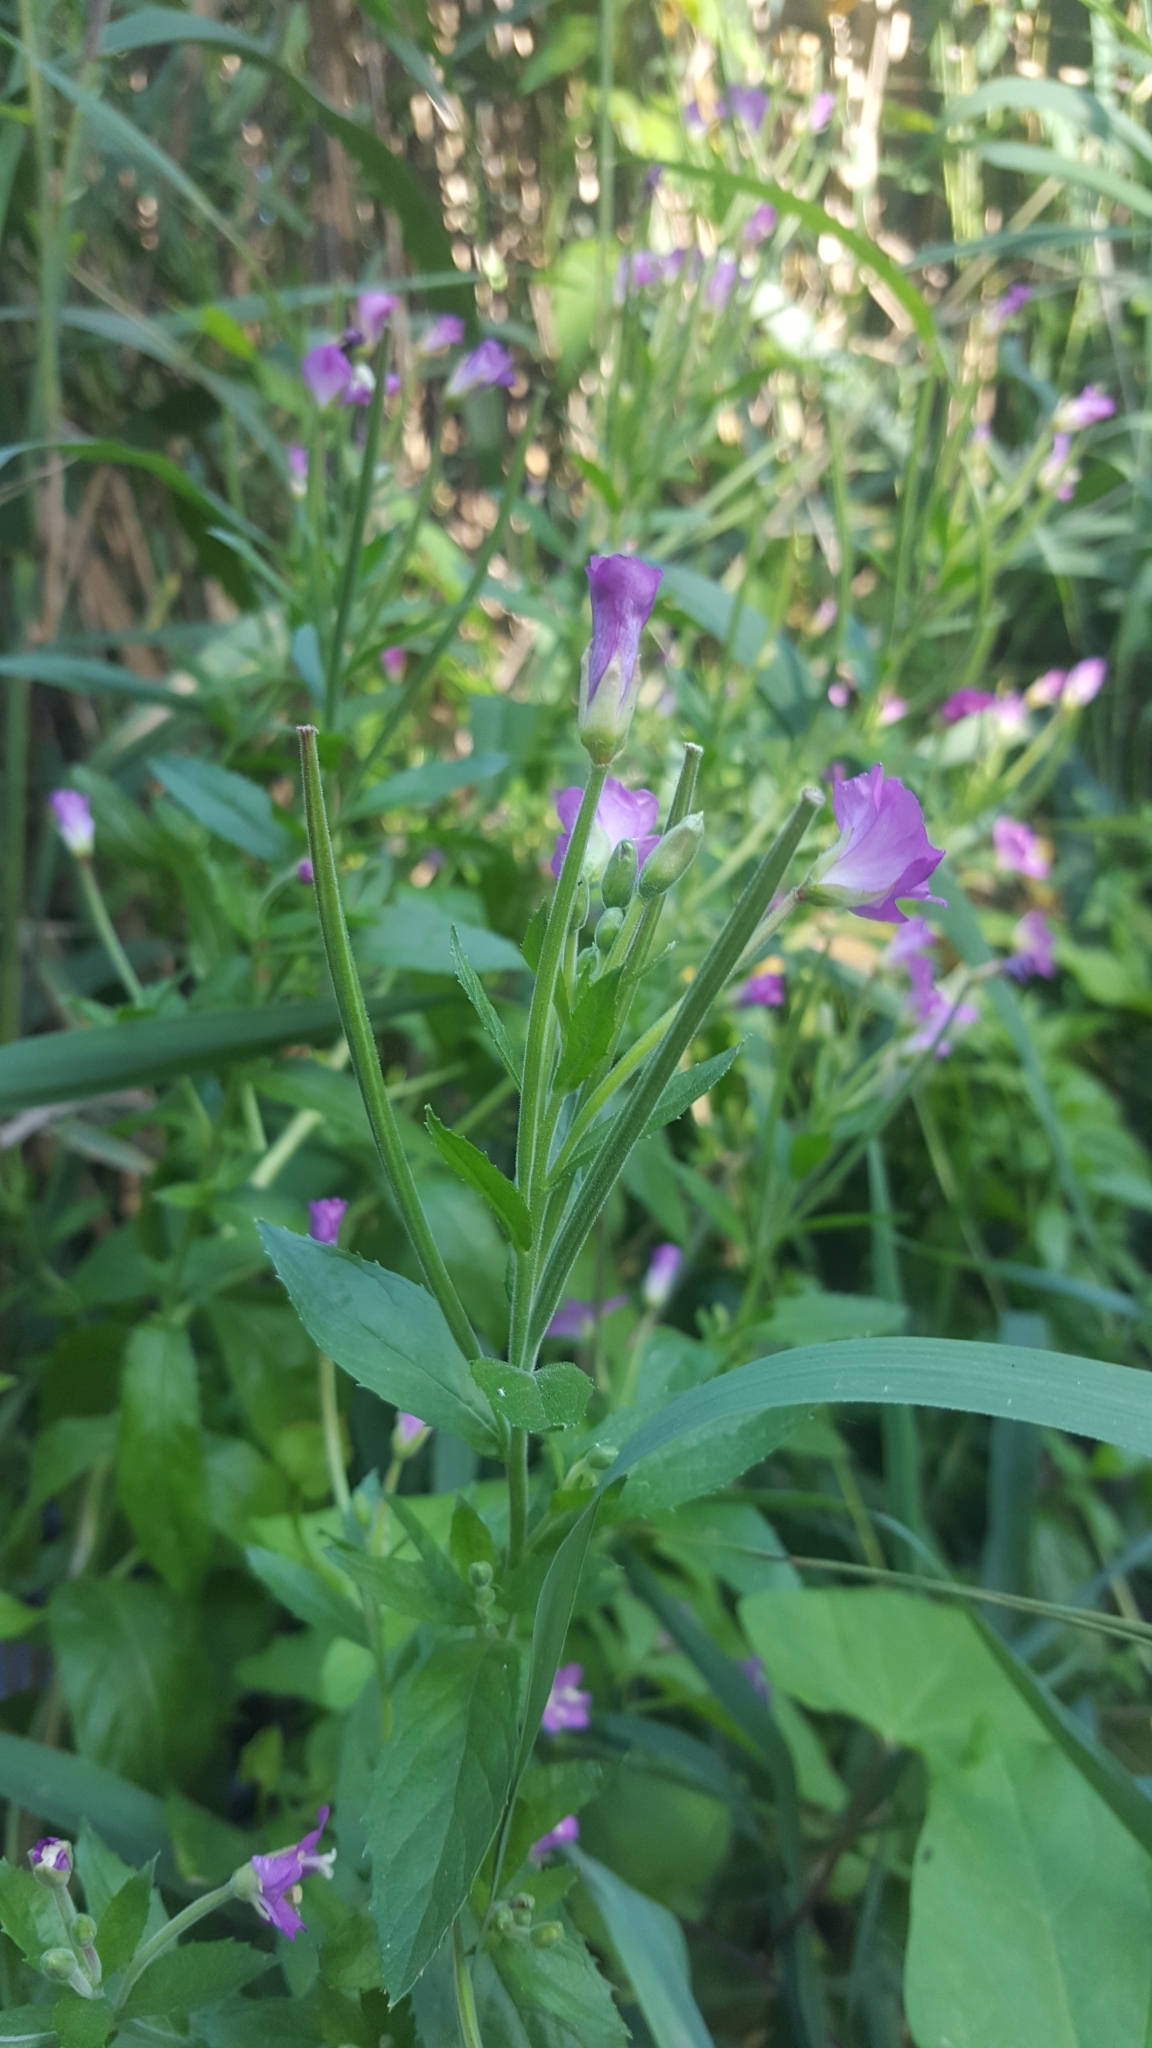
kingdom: Plantae
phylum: Tracheophyta
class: Magnoliopsida
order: Myrtales
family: Onagraceae
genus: Epilobium
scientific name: Epilobium hirsutum
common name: Great willowherb
